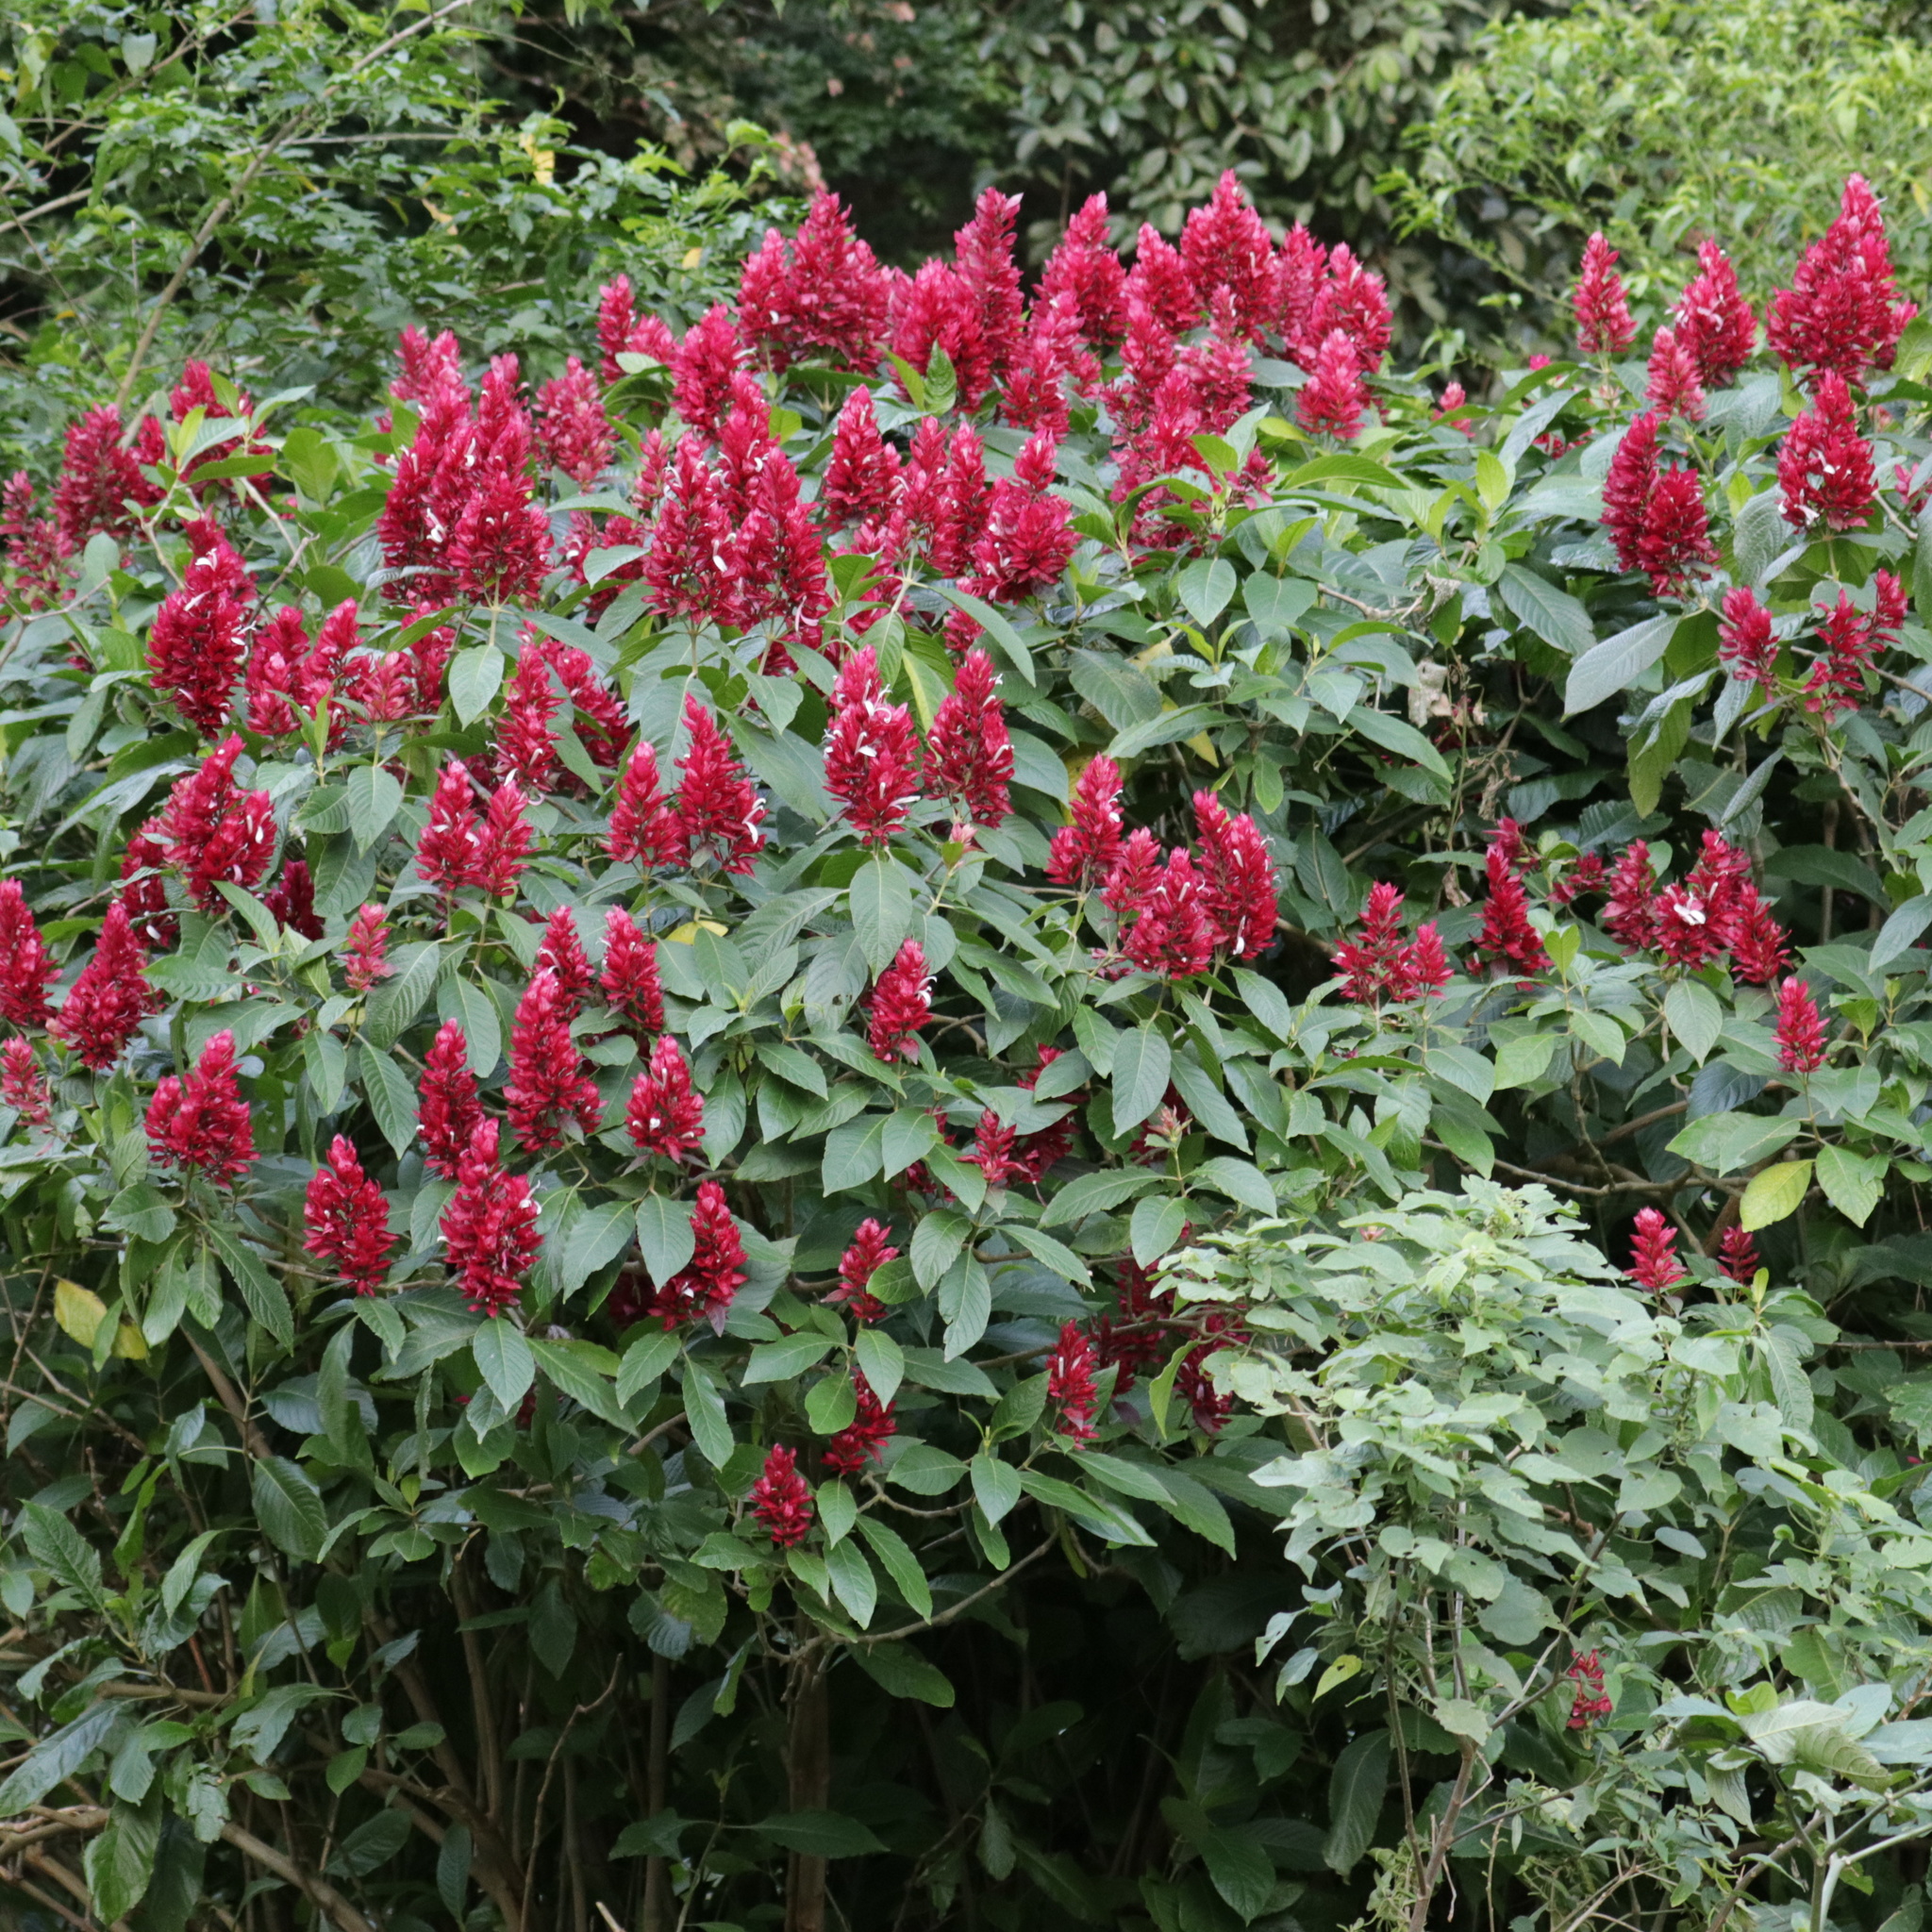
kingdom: Plantae
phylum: Tracheophyta
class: Magnoliopsida
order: Lamiales
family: Acanthaceae
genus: Megaskepasma
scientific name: Megaskepasma erythrochlamys
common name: Brazilian red-cloak
